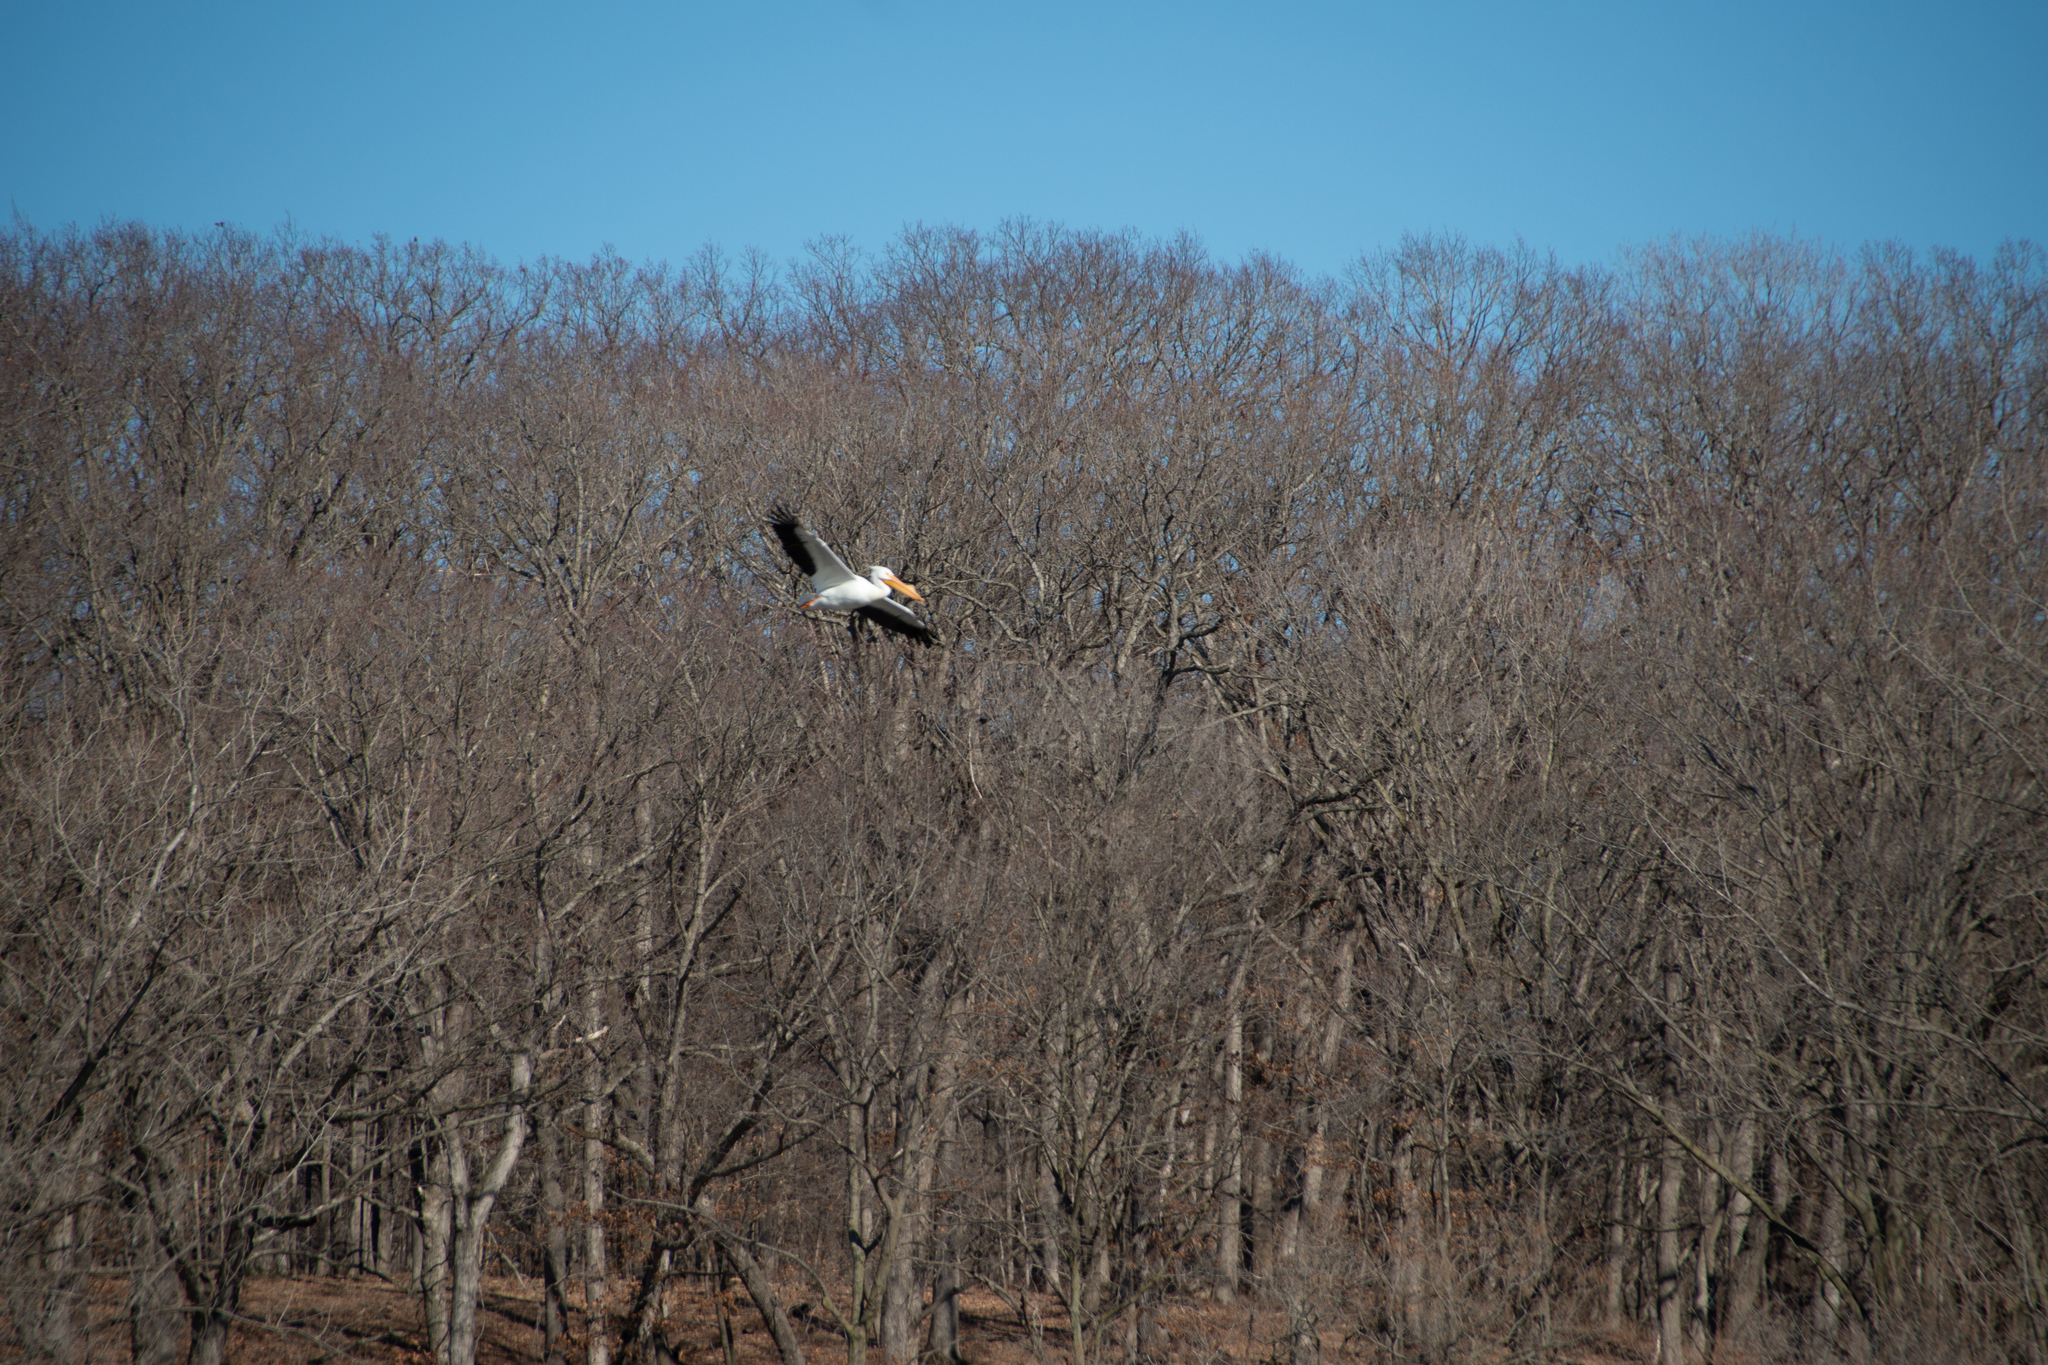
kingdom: Animalia
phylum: Chordata
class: Aves
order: Pelecaniformes
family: Pelecanidae
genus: Pelecanus
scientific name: Pelecanus erythrorhynchos
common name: American white pelican
